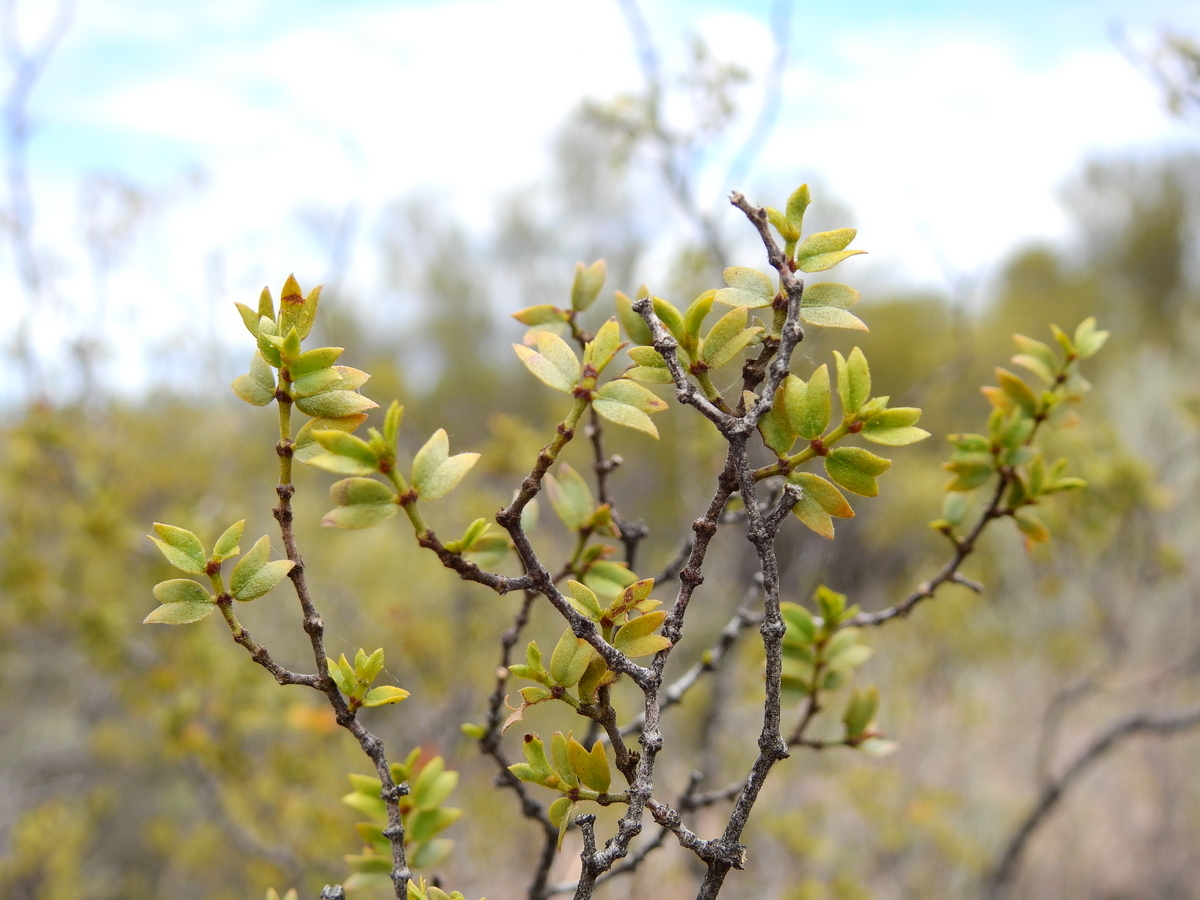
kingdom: Plantae
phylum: Tracheophyta
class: Magnoliopsida
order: Zygophyllales
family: Zygophyllaceae
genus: Larrea
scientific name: Larrea cuneifolia
